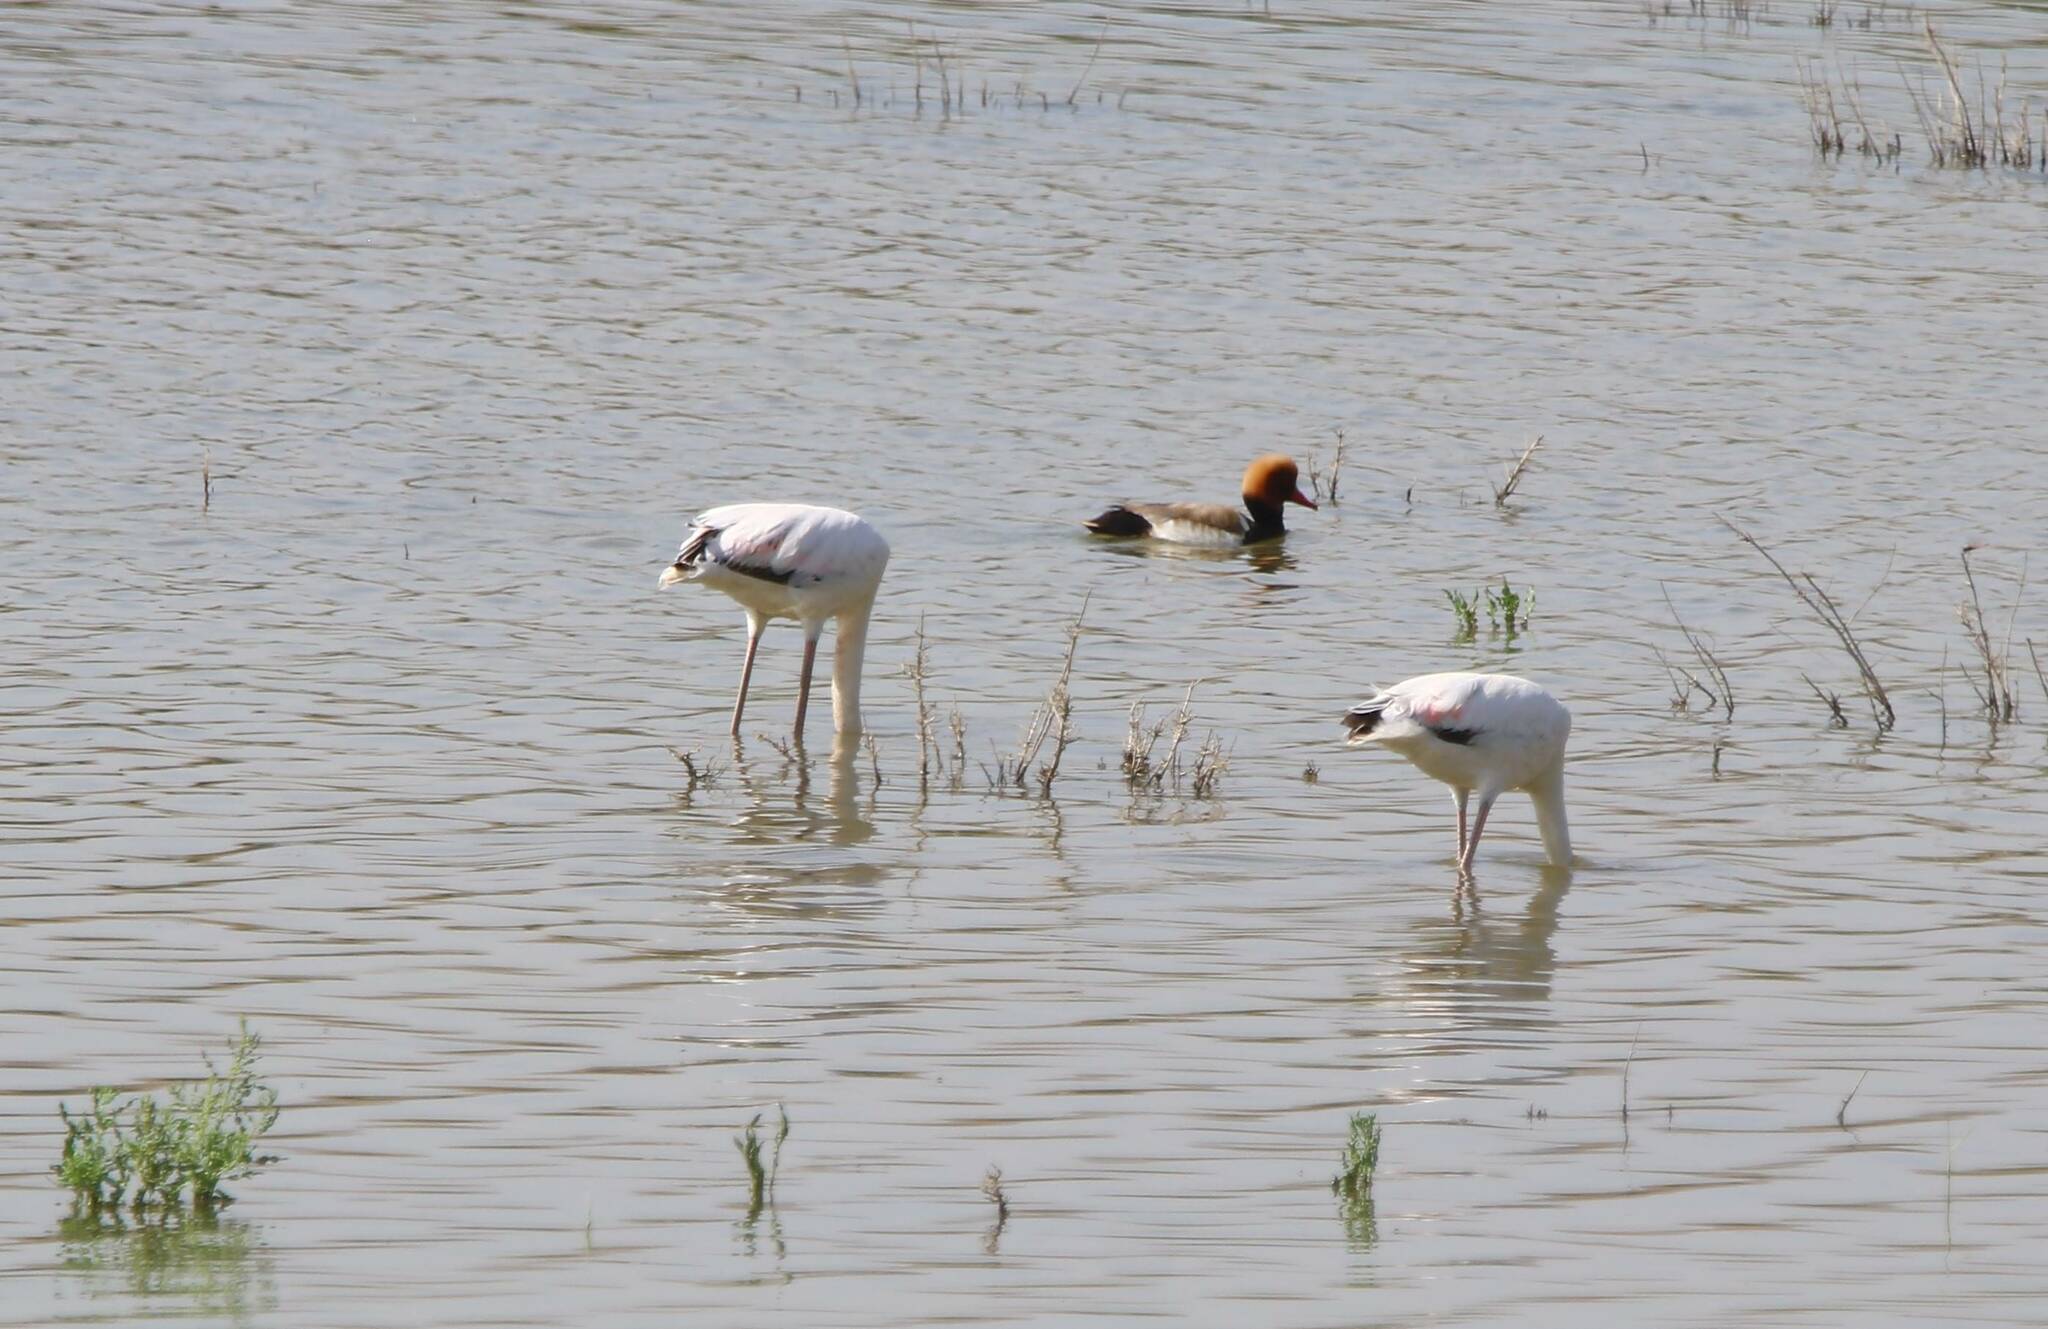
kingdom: Animalia
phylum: Chordata
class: Aves
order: Phoenicopteriformes
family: Phoenicopteridae
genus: Phoenicopterus
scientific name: Phoenicopterus roseus
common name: Greater flamingo
